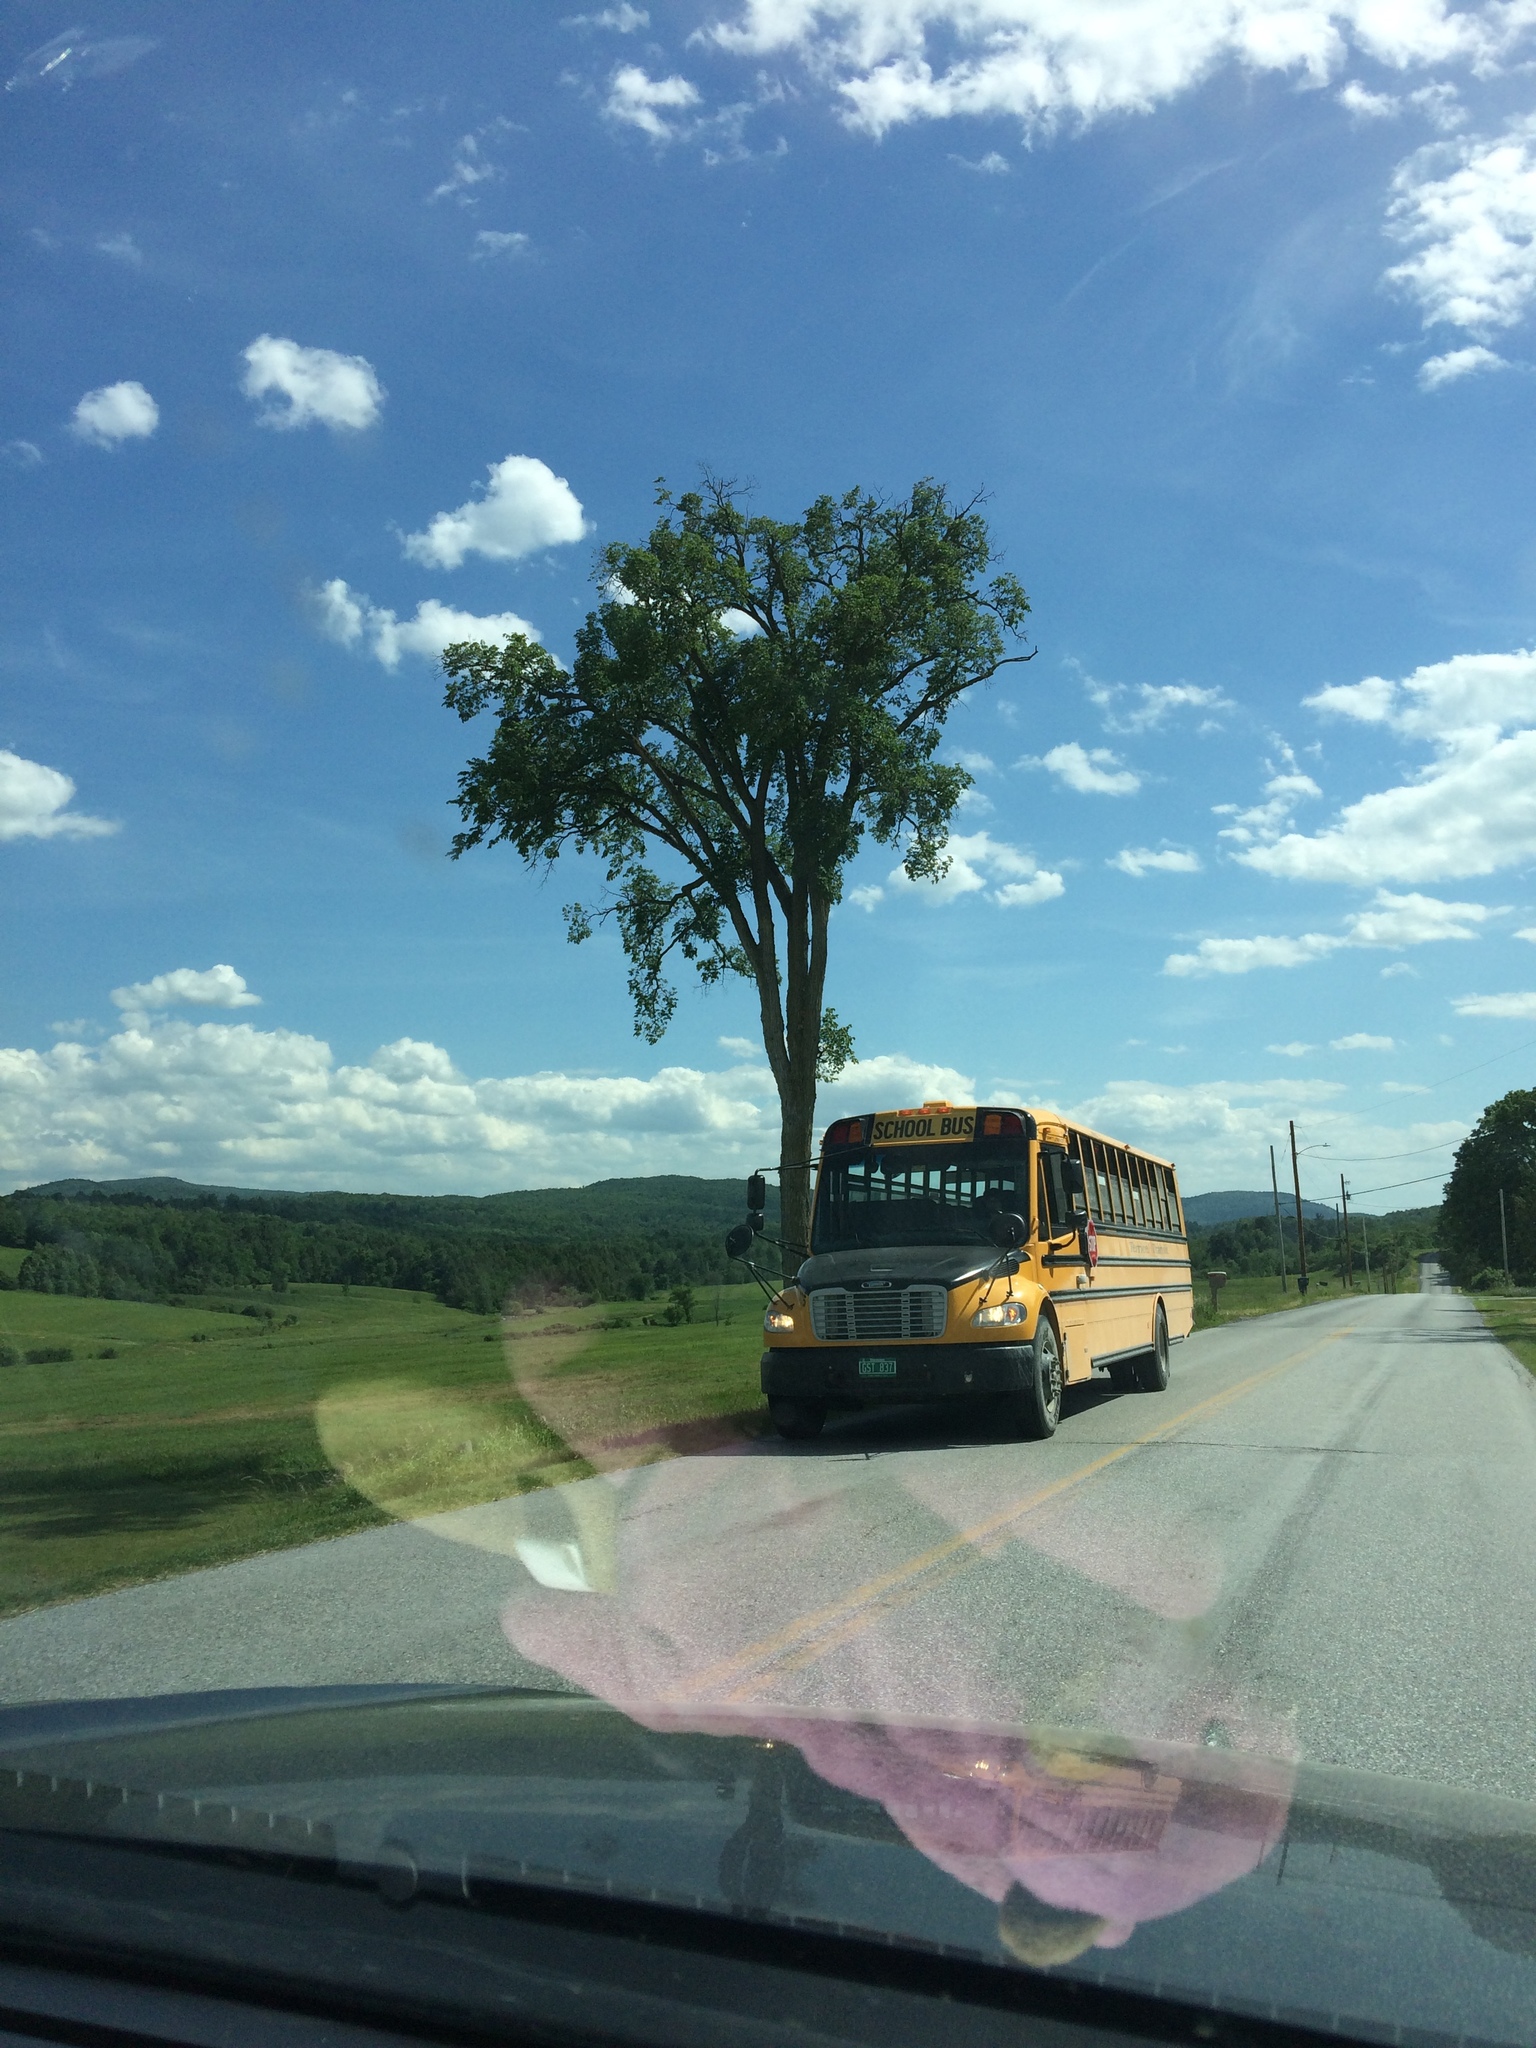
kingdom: Plantae
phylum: Tracheophyta
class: Magnoliopsida
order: Rosales
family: Ulmaceae
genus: Ulmus
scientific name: Ulmus americana
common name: American elm
